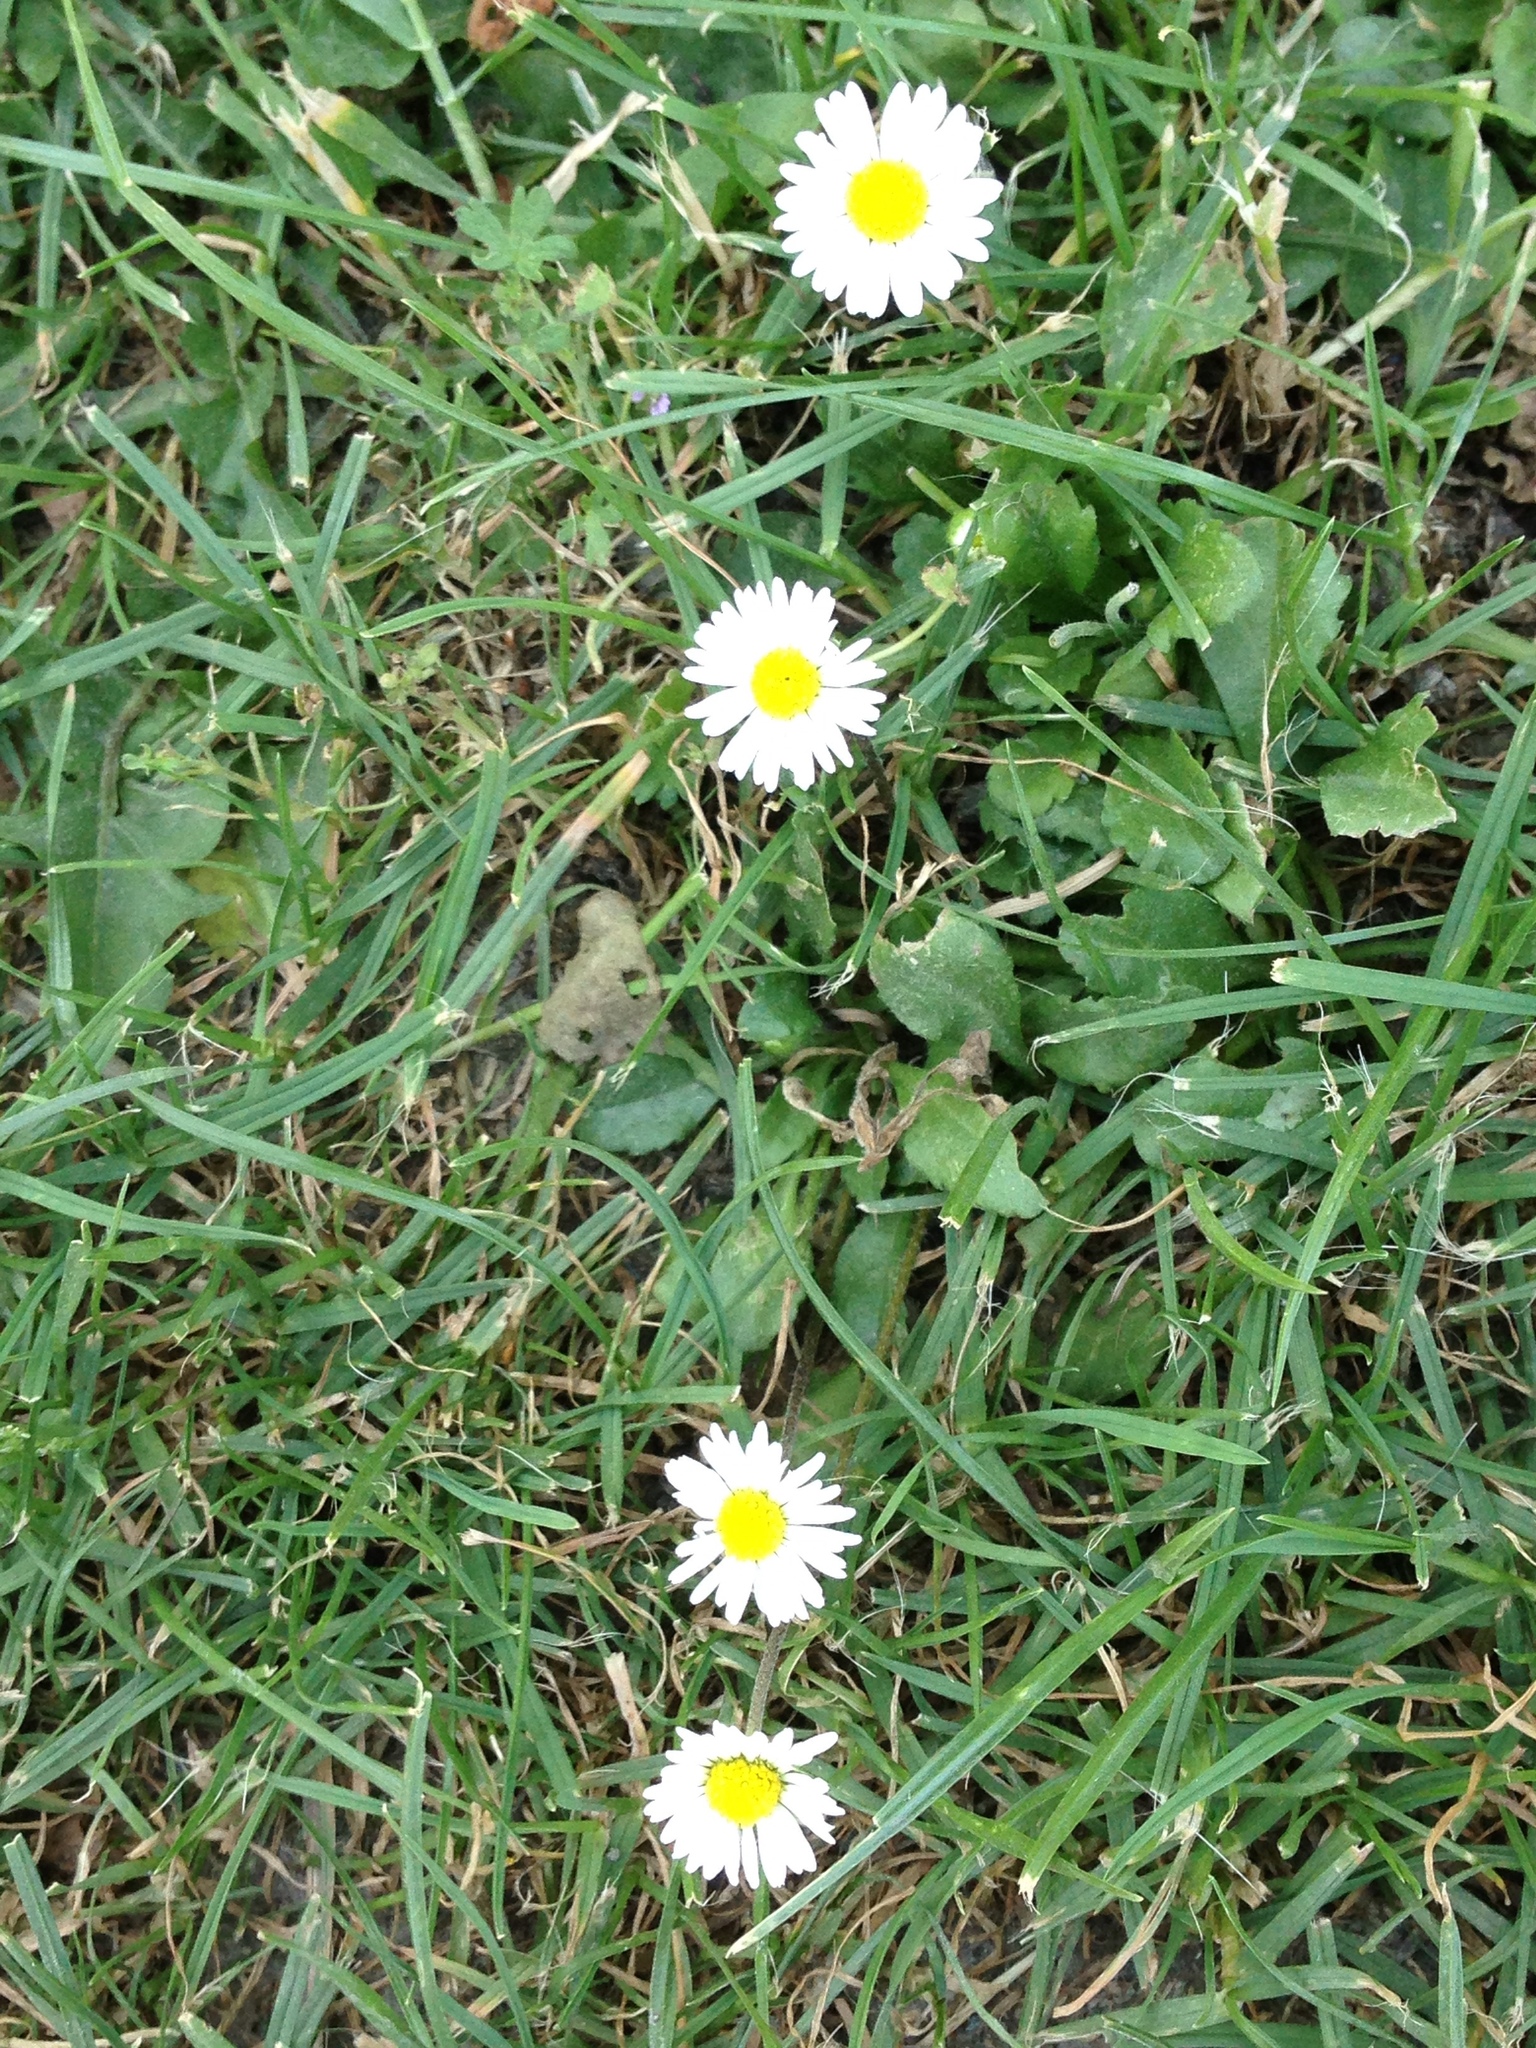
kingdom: Plantae
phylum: Tracheophyta
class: Magnoliopsida
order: Asterales
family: Asteraceae
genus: Bellis
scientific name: Bellis perennis
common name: Lawndaisy
